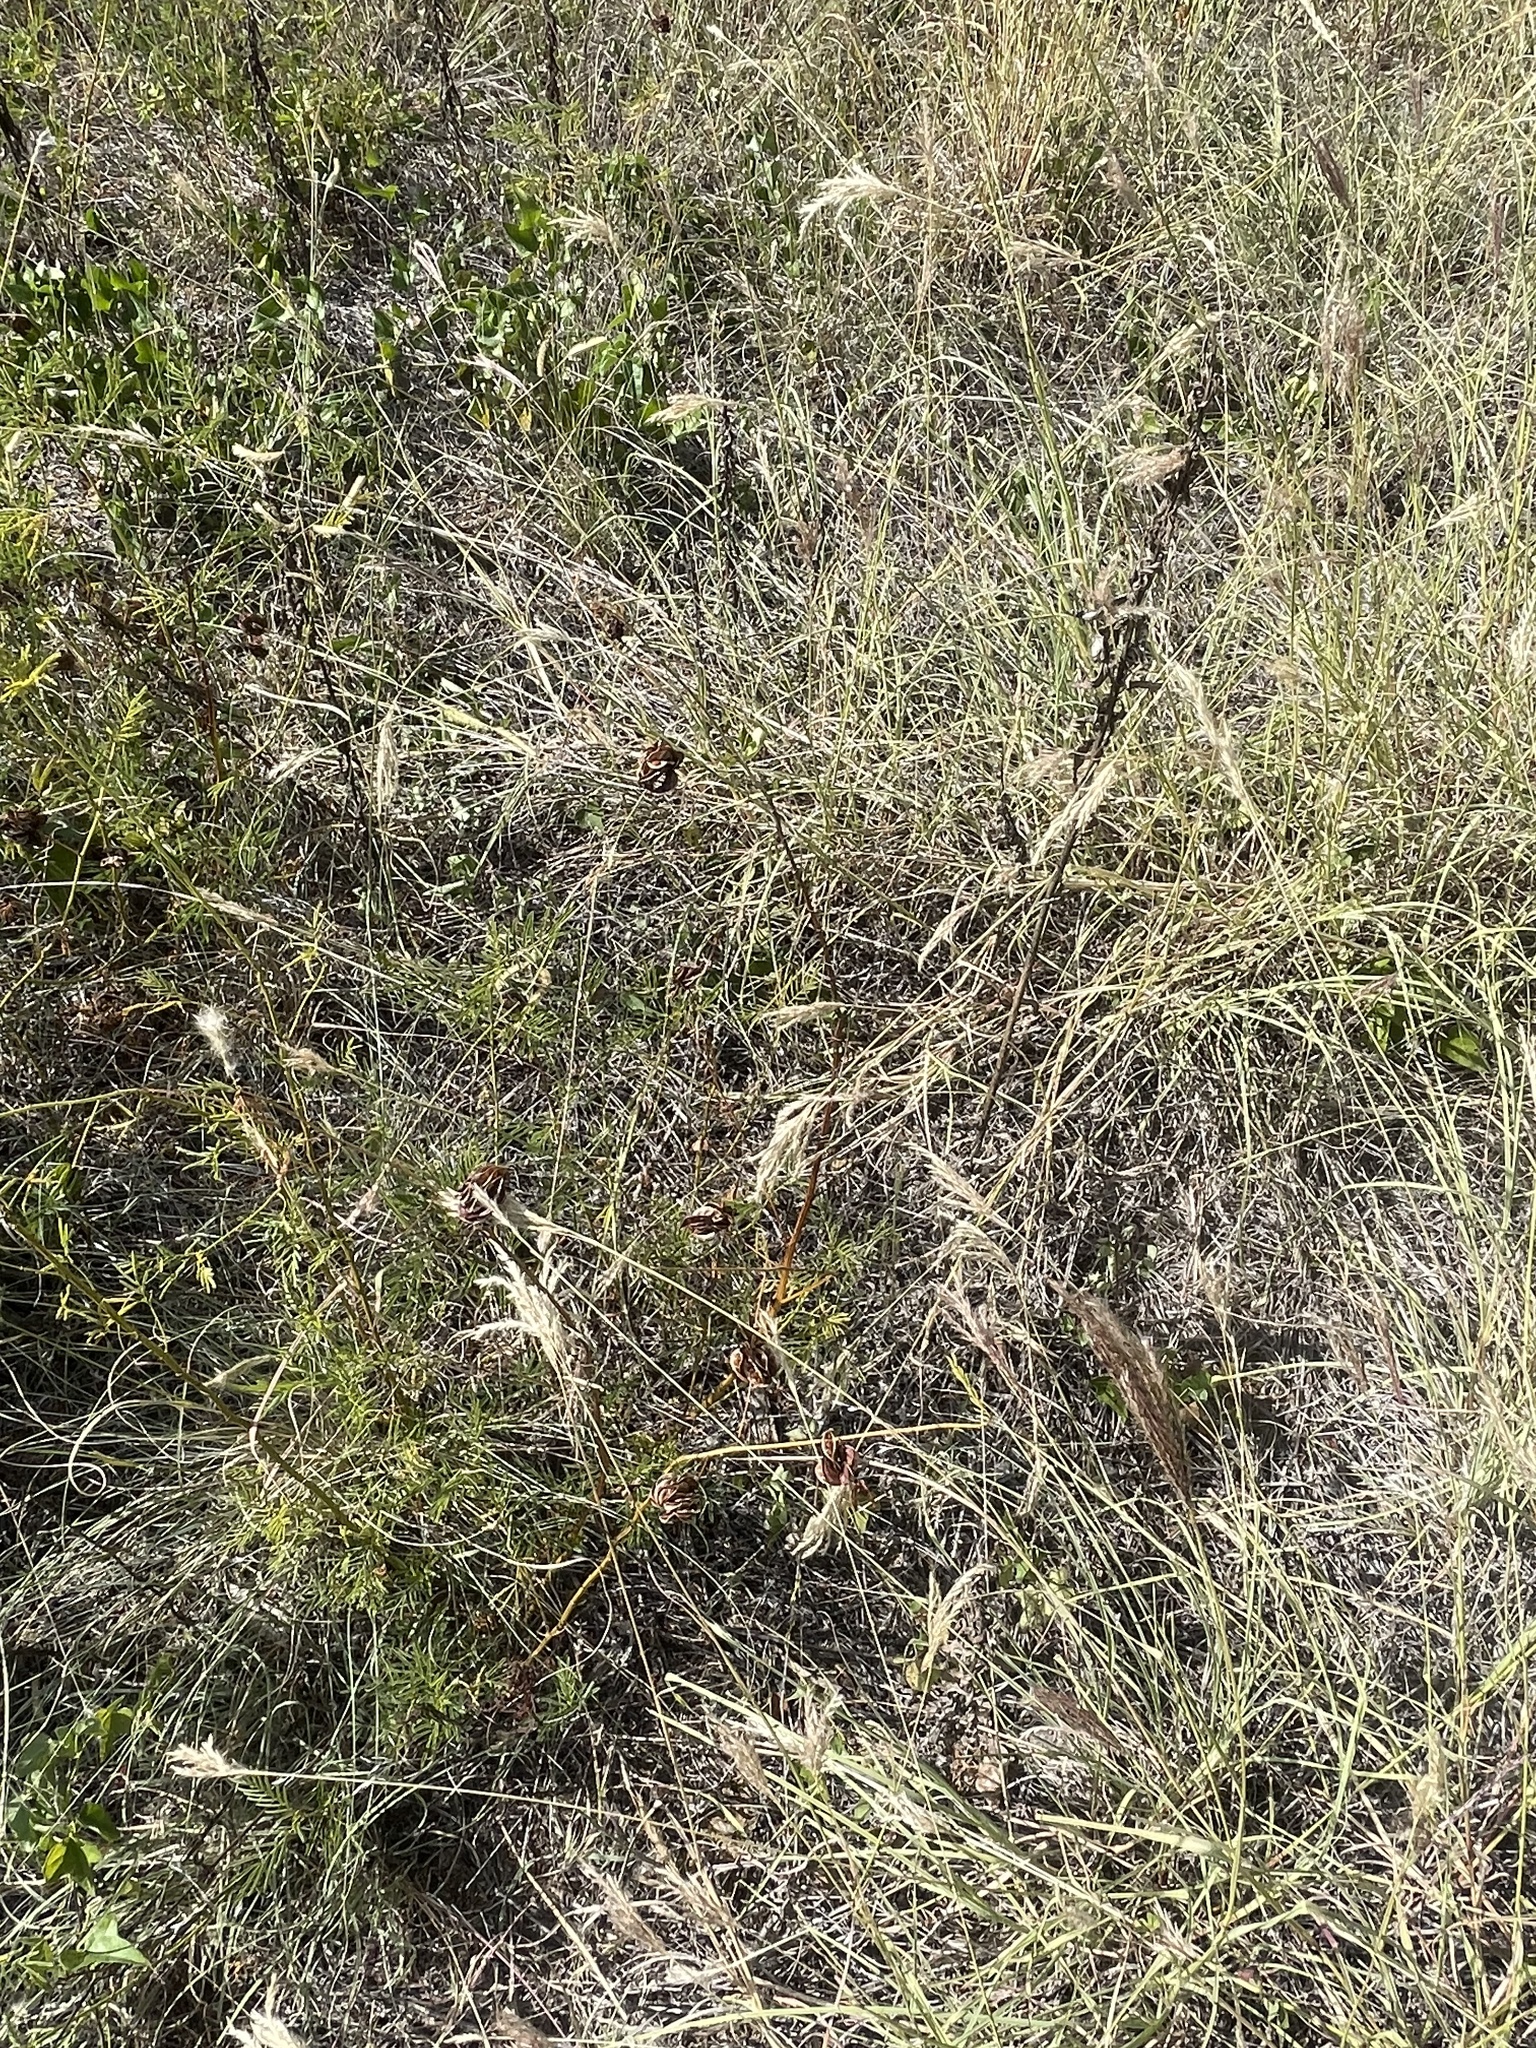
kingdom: Plantae
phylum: Tracheophyta
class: Magnoliopsida
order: Fabales
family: Fabaceae
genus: Desmanthus
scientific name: Desmanthus illinoensis
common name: Illinois bundle-flower
